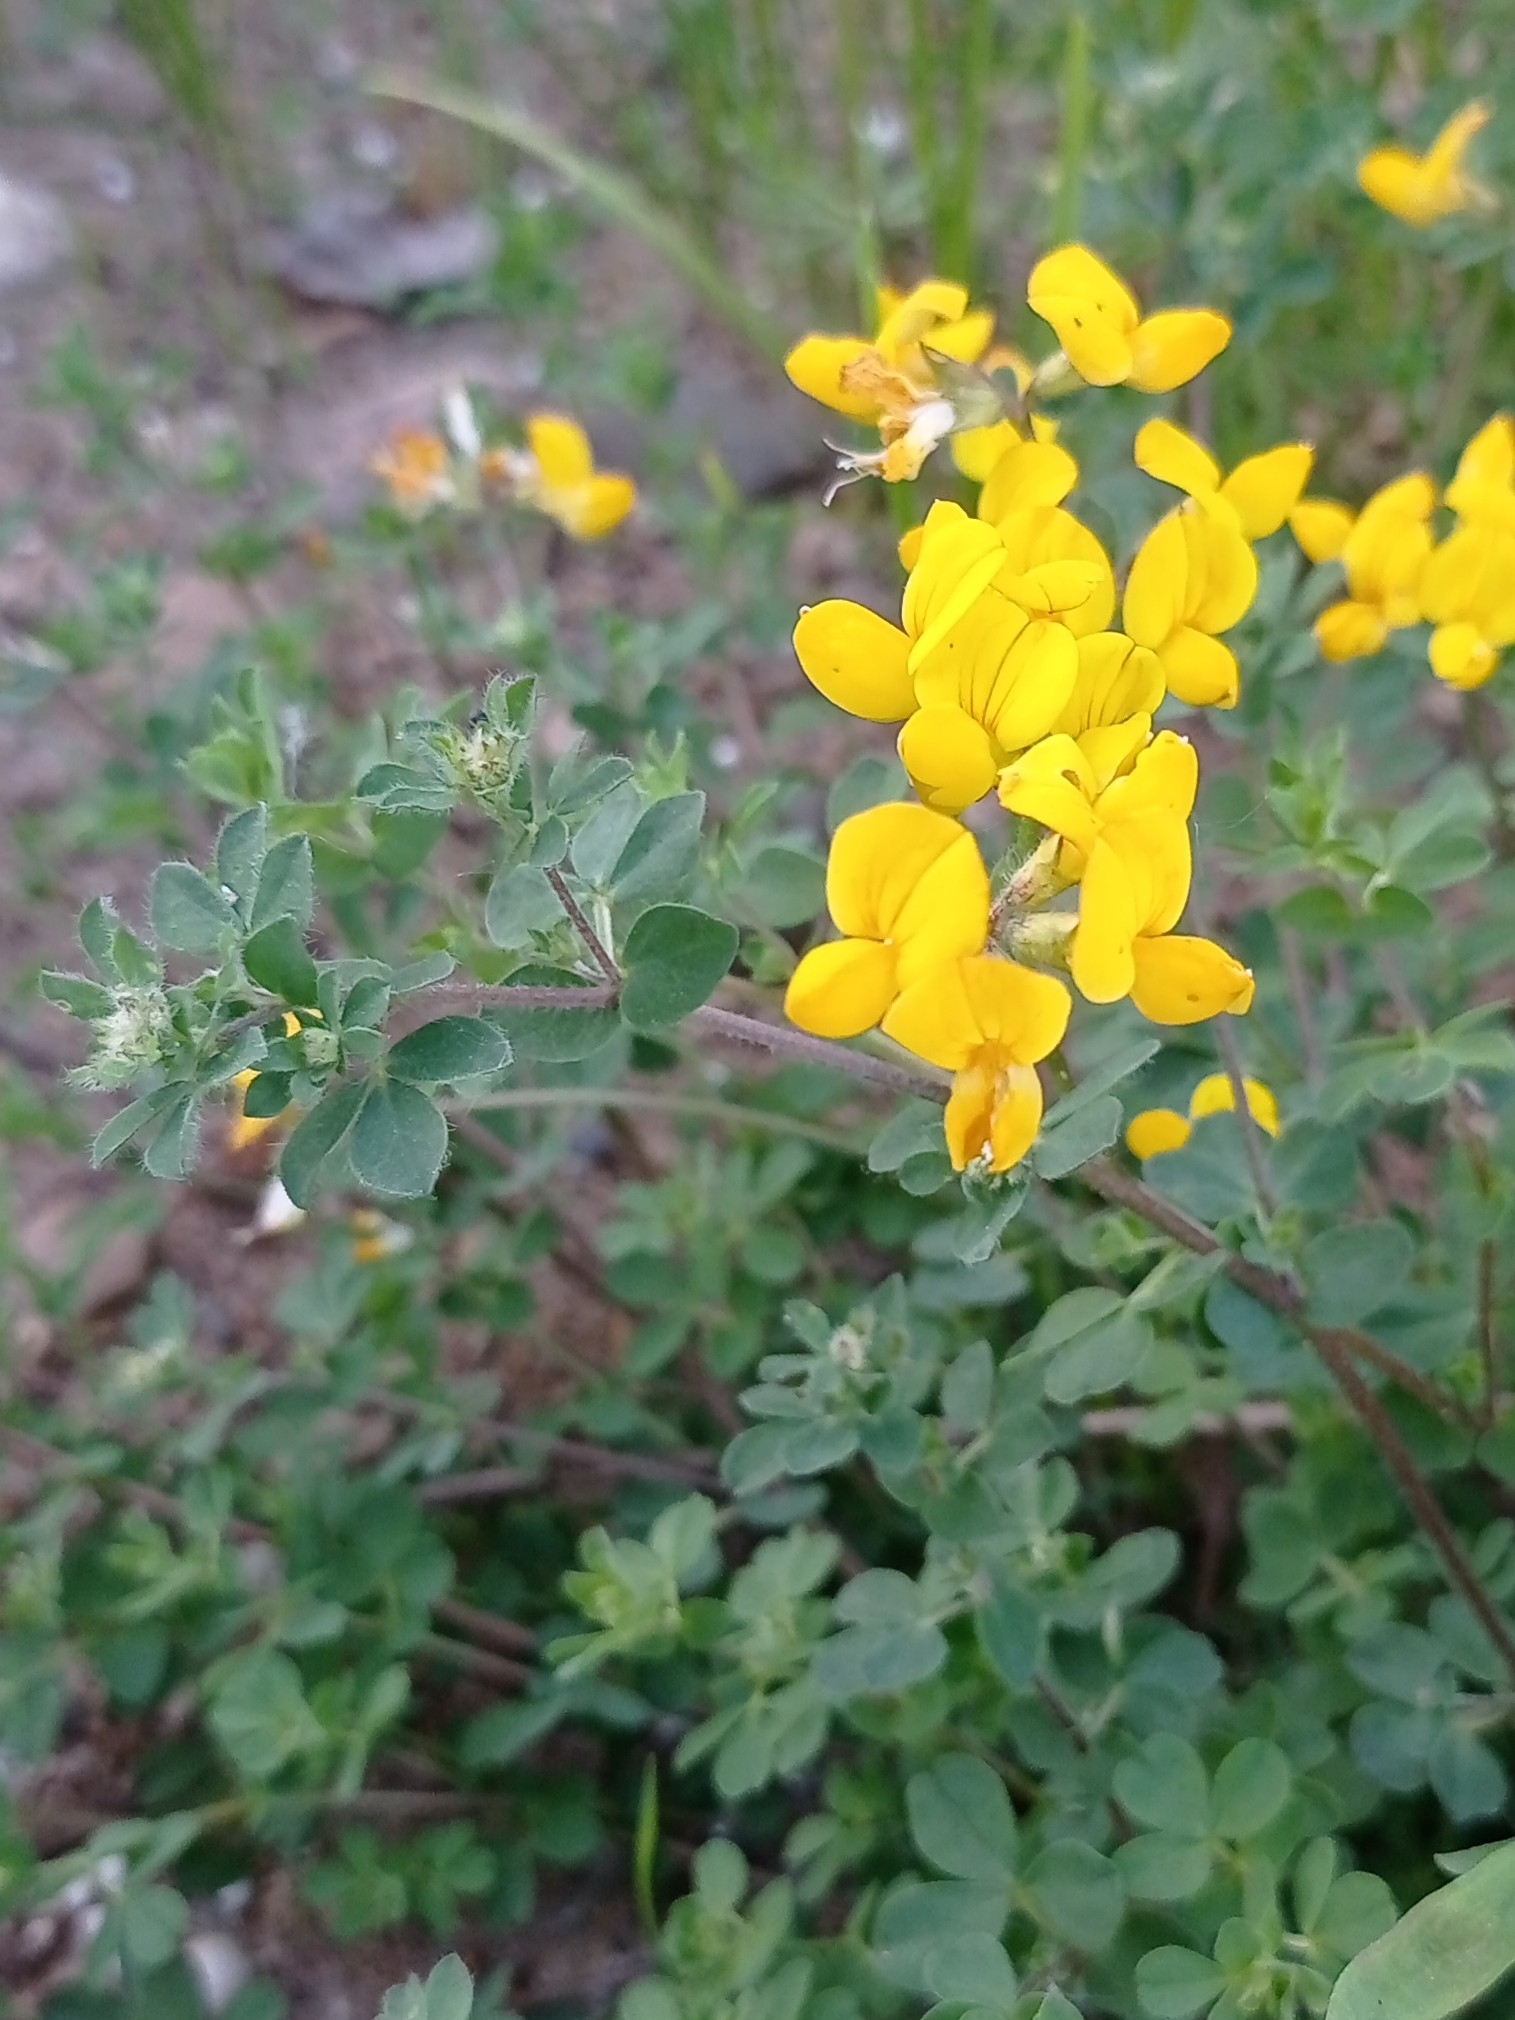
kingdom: Plantae
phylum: Tracheophyta
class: Magnoliopsida
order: Fabales
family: Fabaceae
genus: Lotus
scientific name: Lotus corniculatus
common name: Common bird's-foot-trefoil
